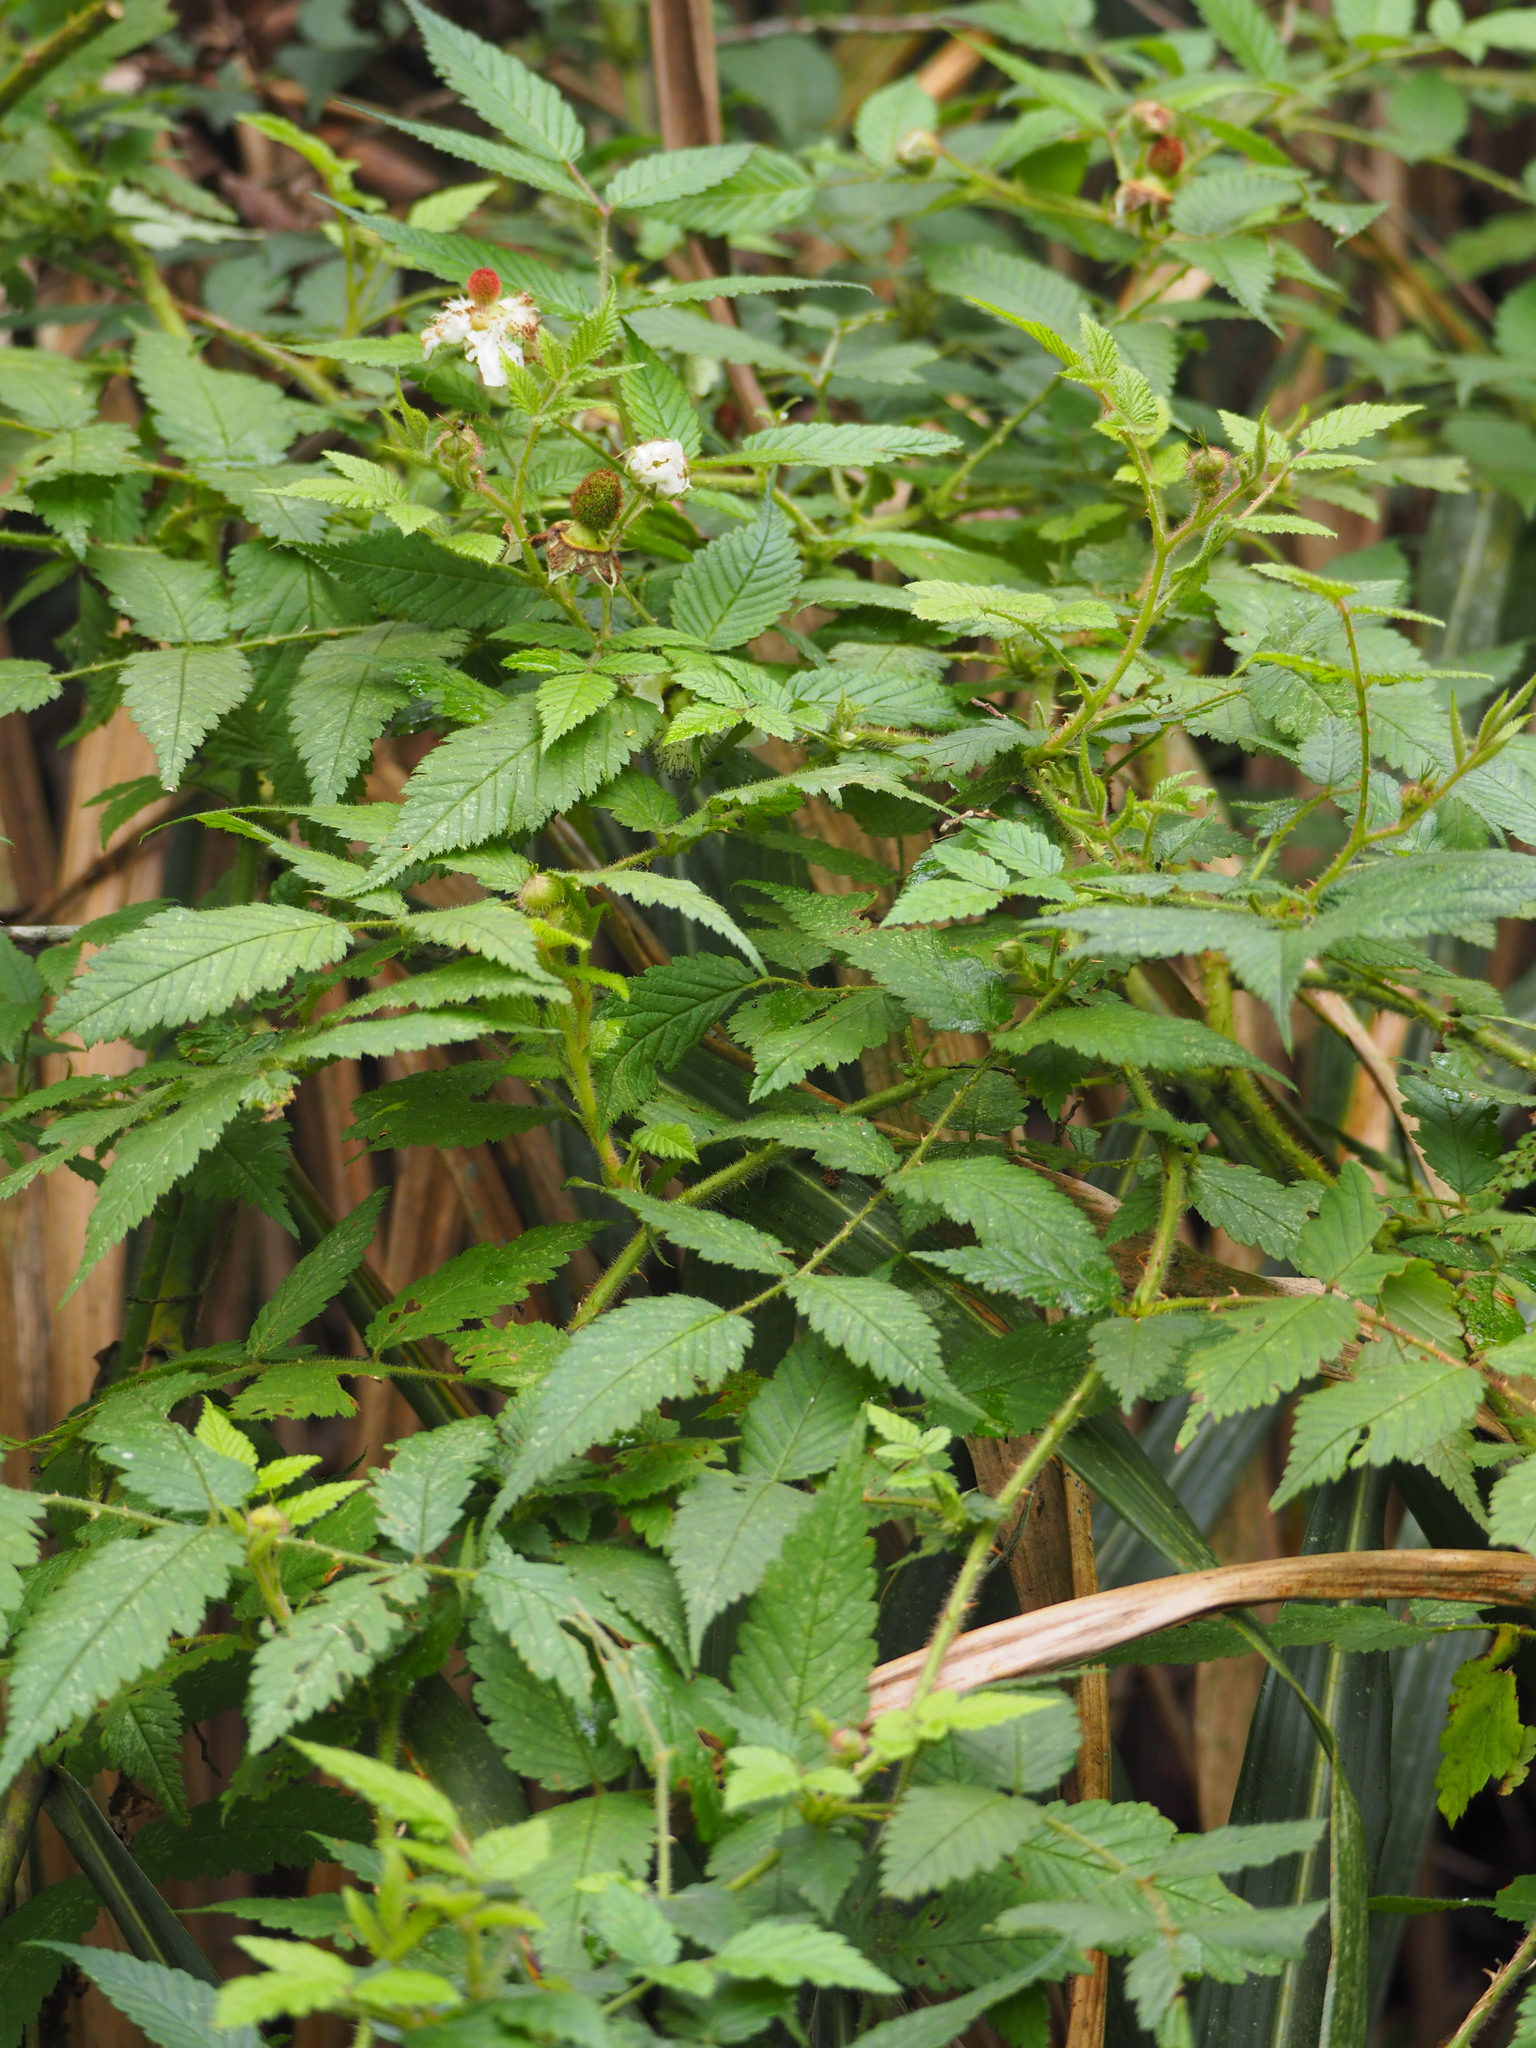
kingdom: Plantae
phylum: Tracheophyta
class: Magnoliopsida
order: Rosales
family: Rosaceae
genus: Rubus
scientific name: Rubus croceacanthus
